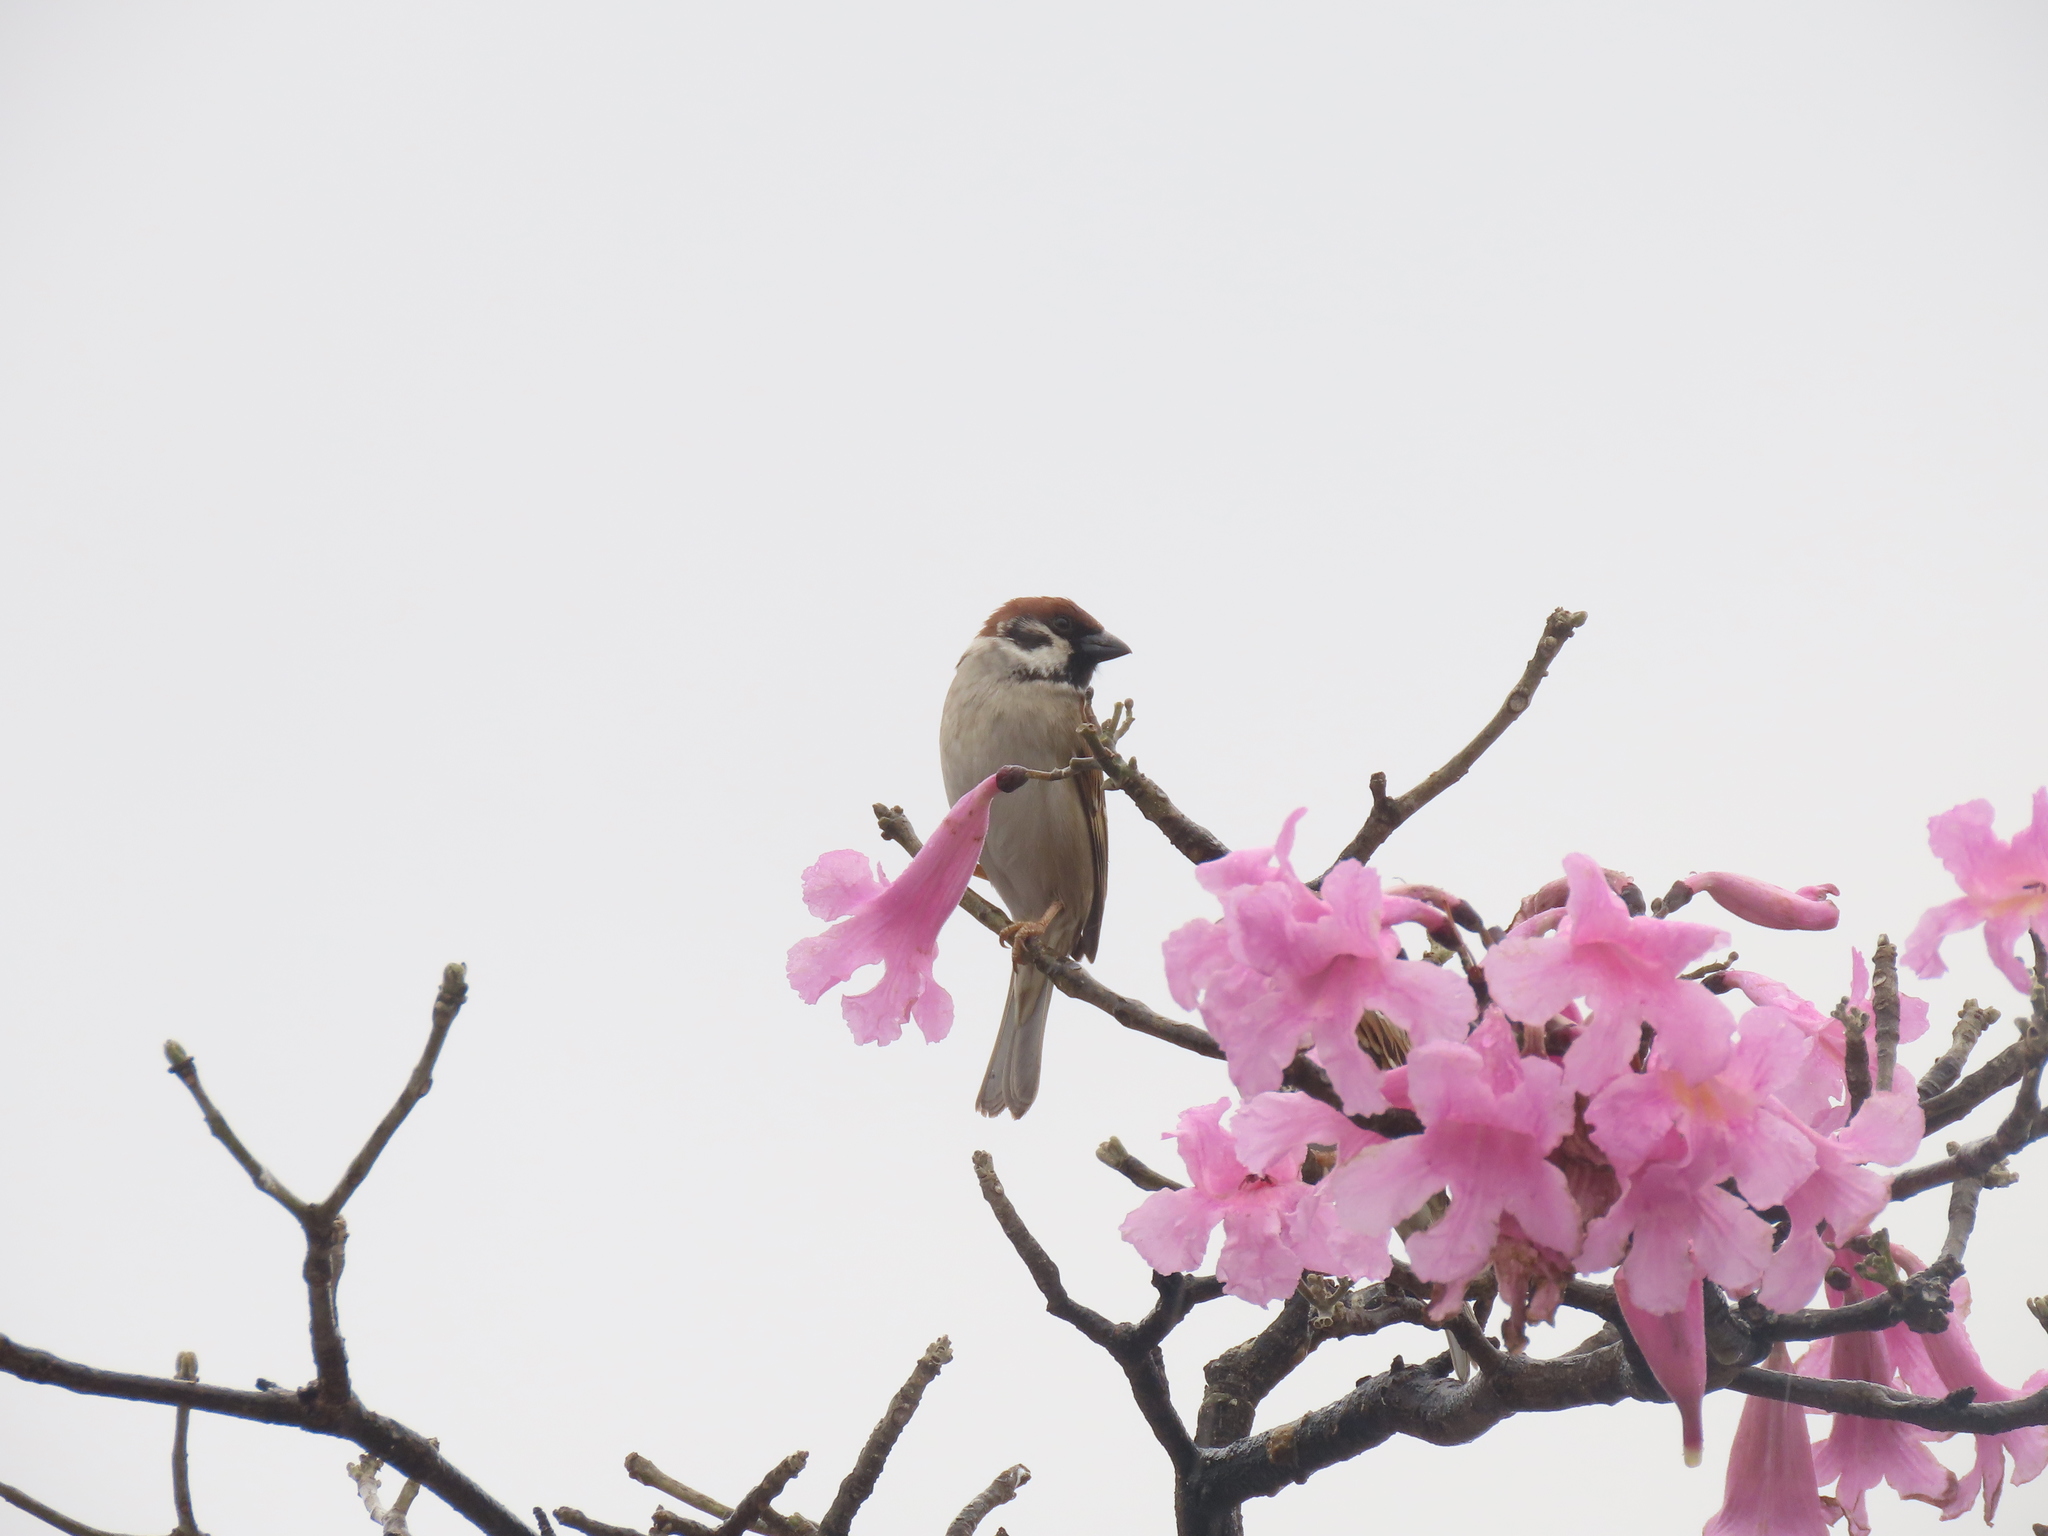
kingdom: Animalia
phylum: Chordata
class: Aves
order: Passeriformes
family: Passeridae
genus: Passer
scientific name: Passer montanus
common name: Eurasian tree sparrow
